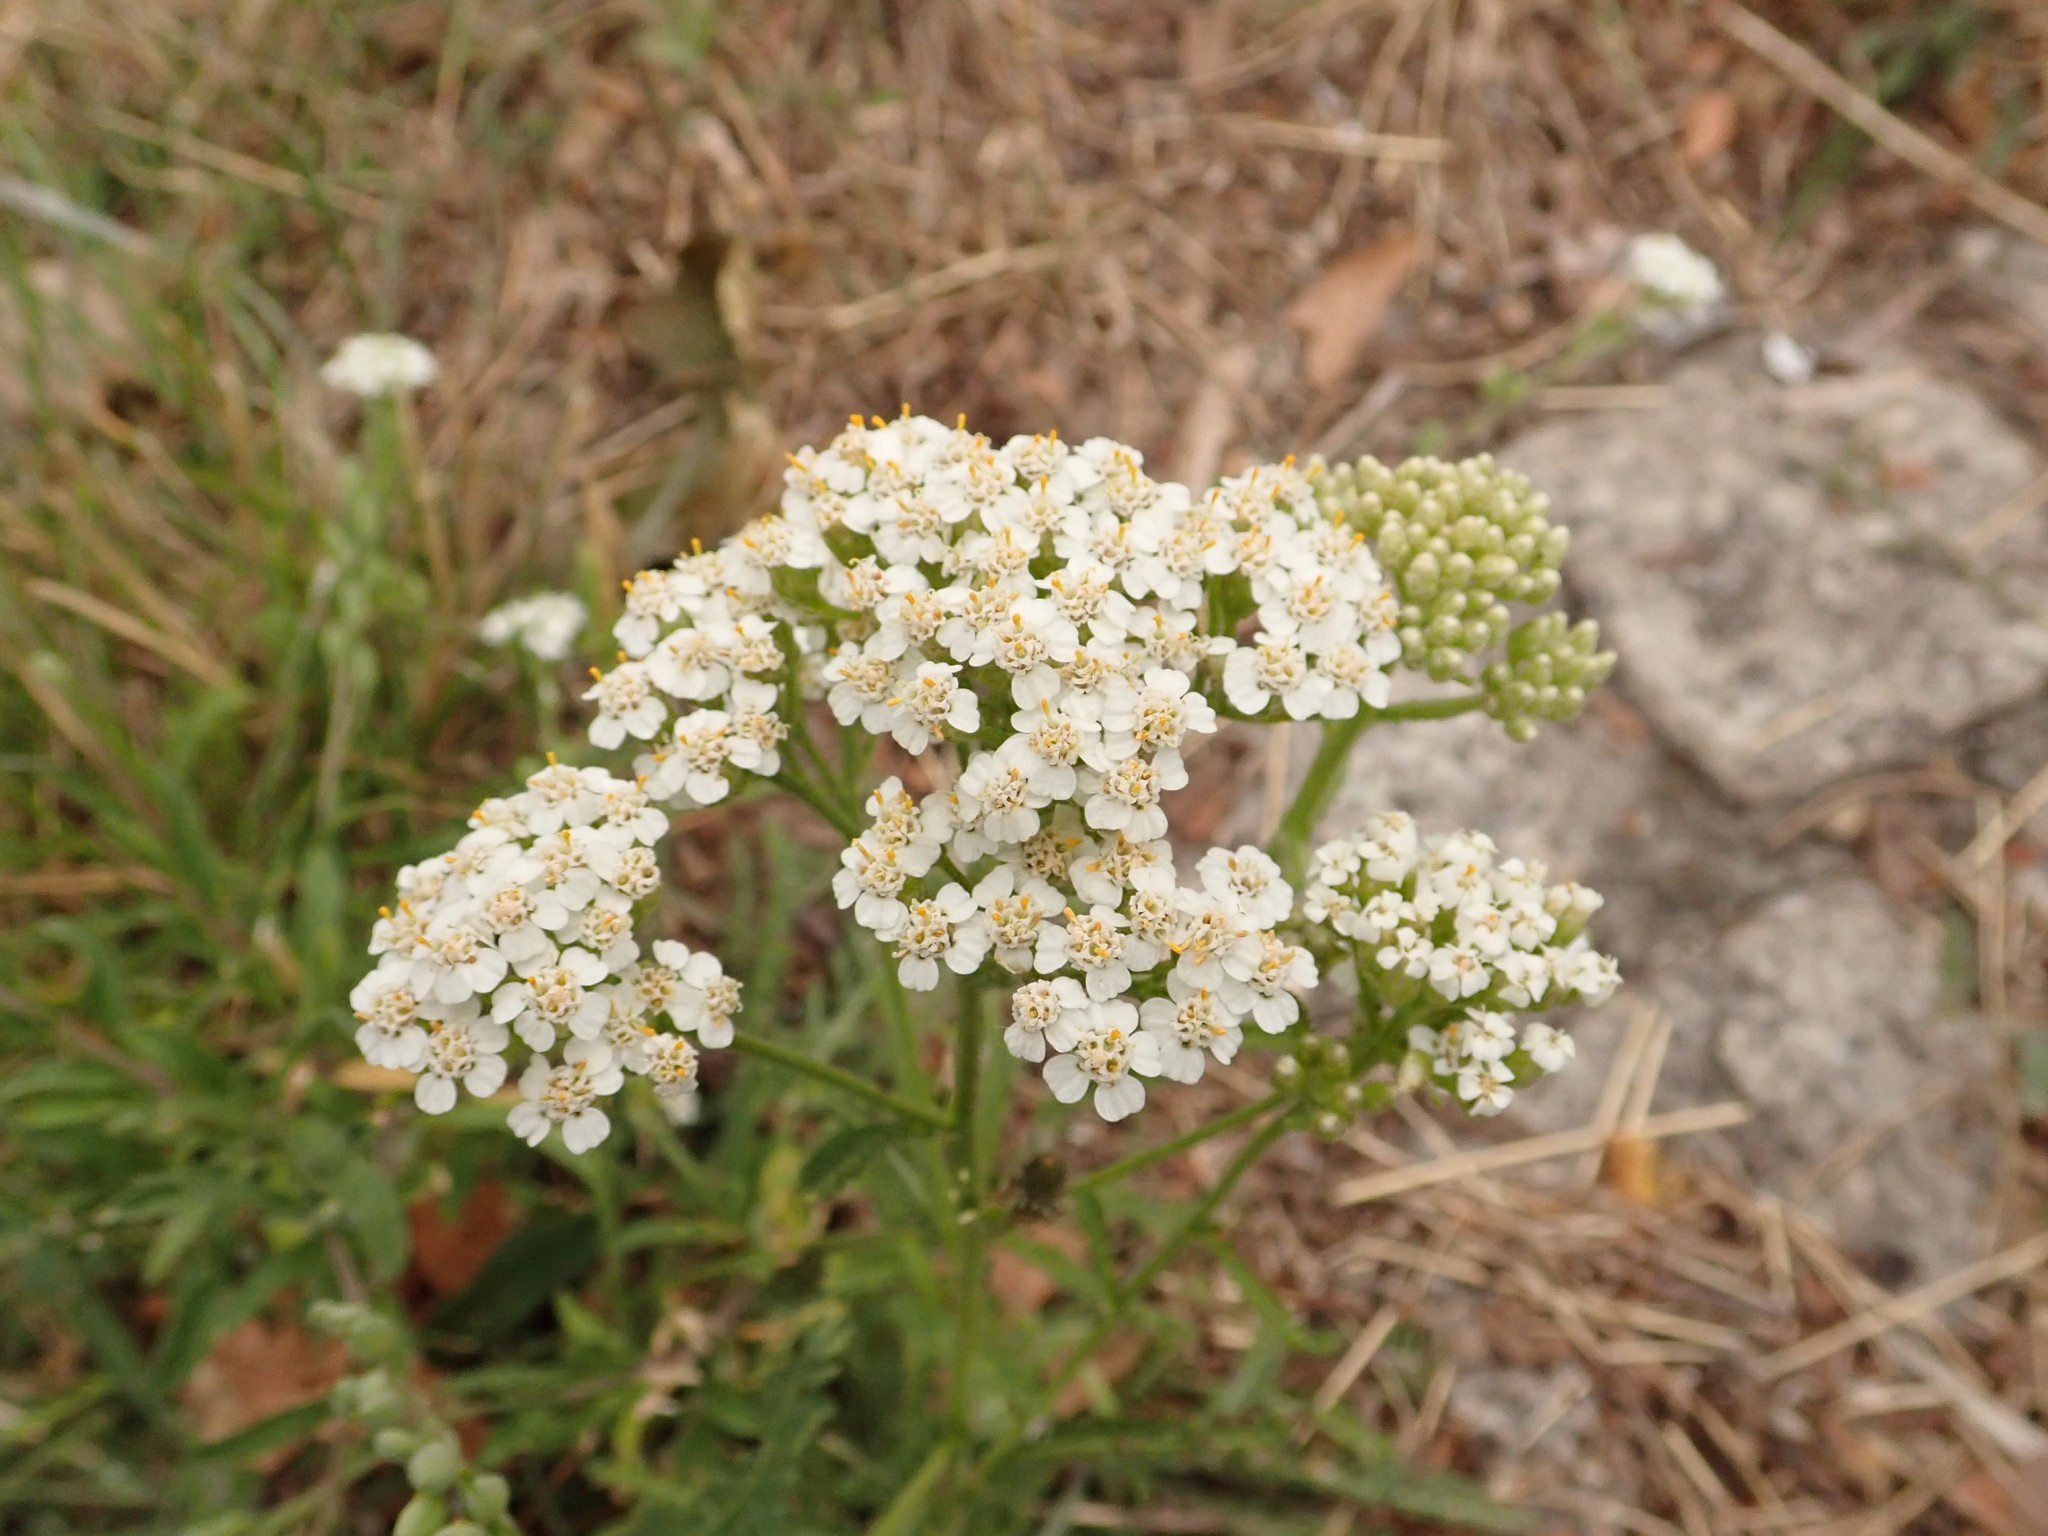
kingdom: Plantae
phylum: Tracheophyta
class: Magnoliopsida
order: Asterales
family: Asteraceae
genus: Achillea
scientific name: Achillea millefolium
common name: Yarrow
